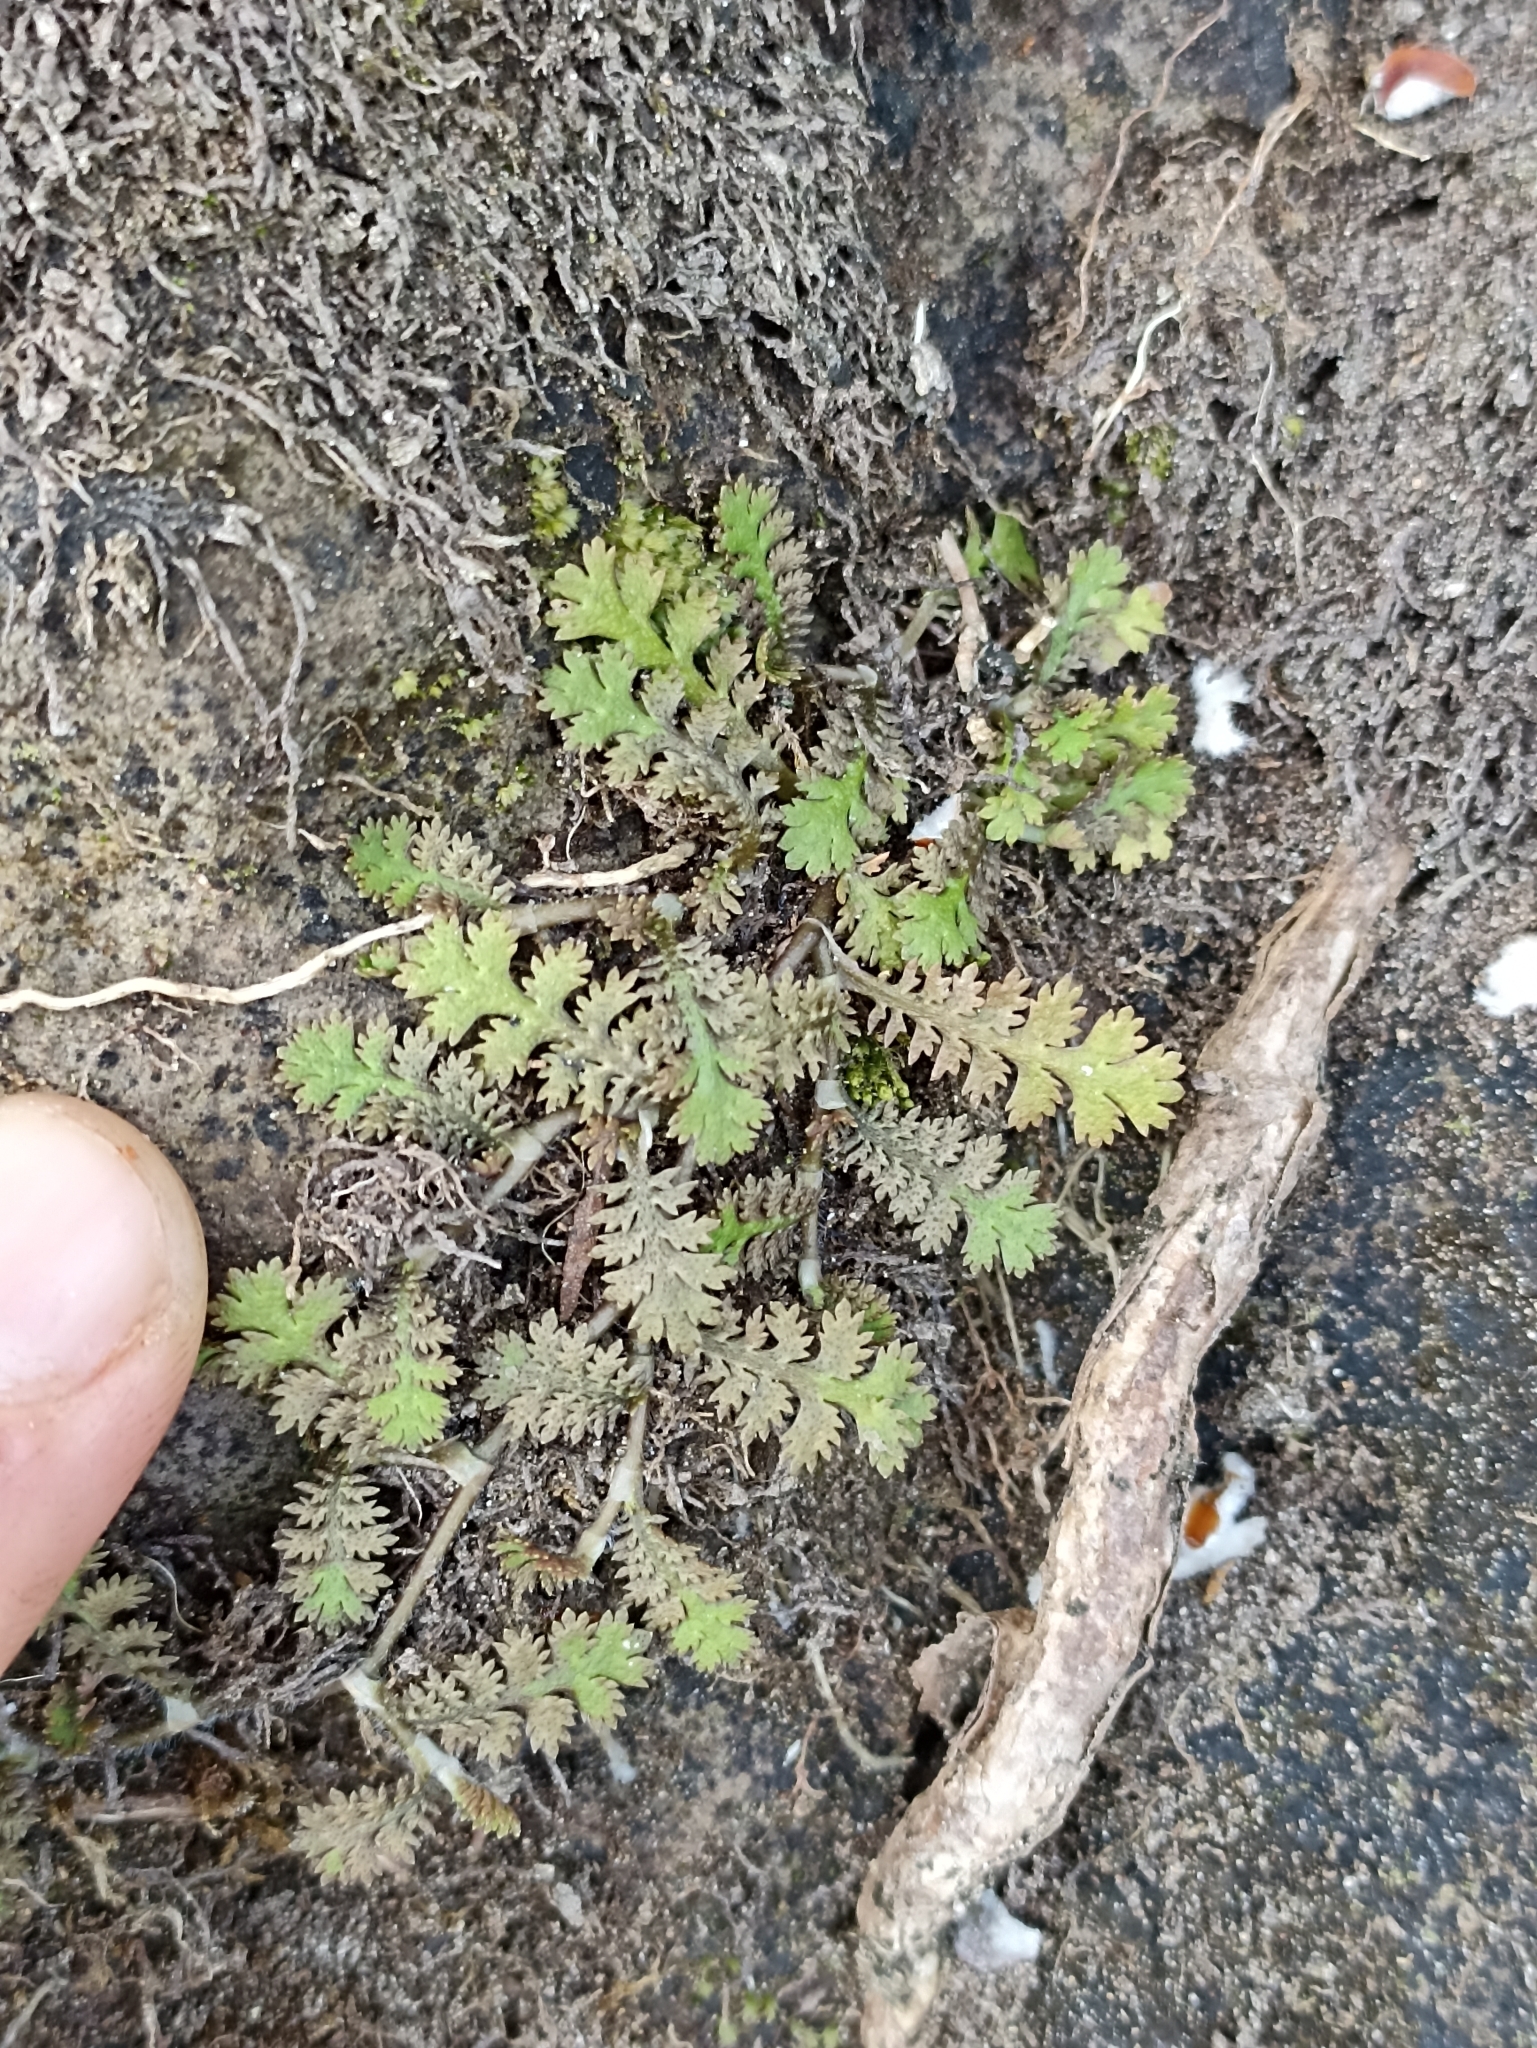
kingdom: Plantae
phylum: Tracheophyta
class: Magnoliopsida
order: Asterales
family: Asteraceae
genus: Leptinella
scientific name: Leptinella tenella
